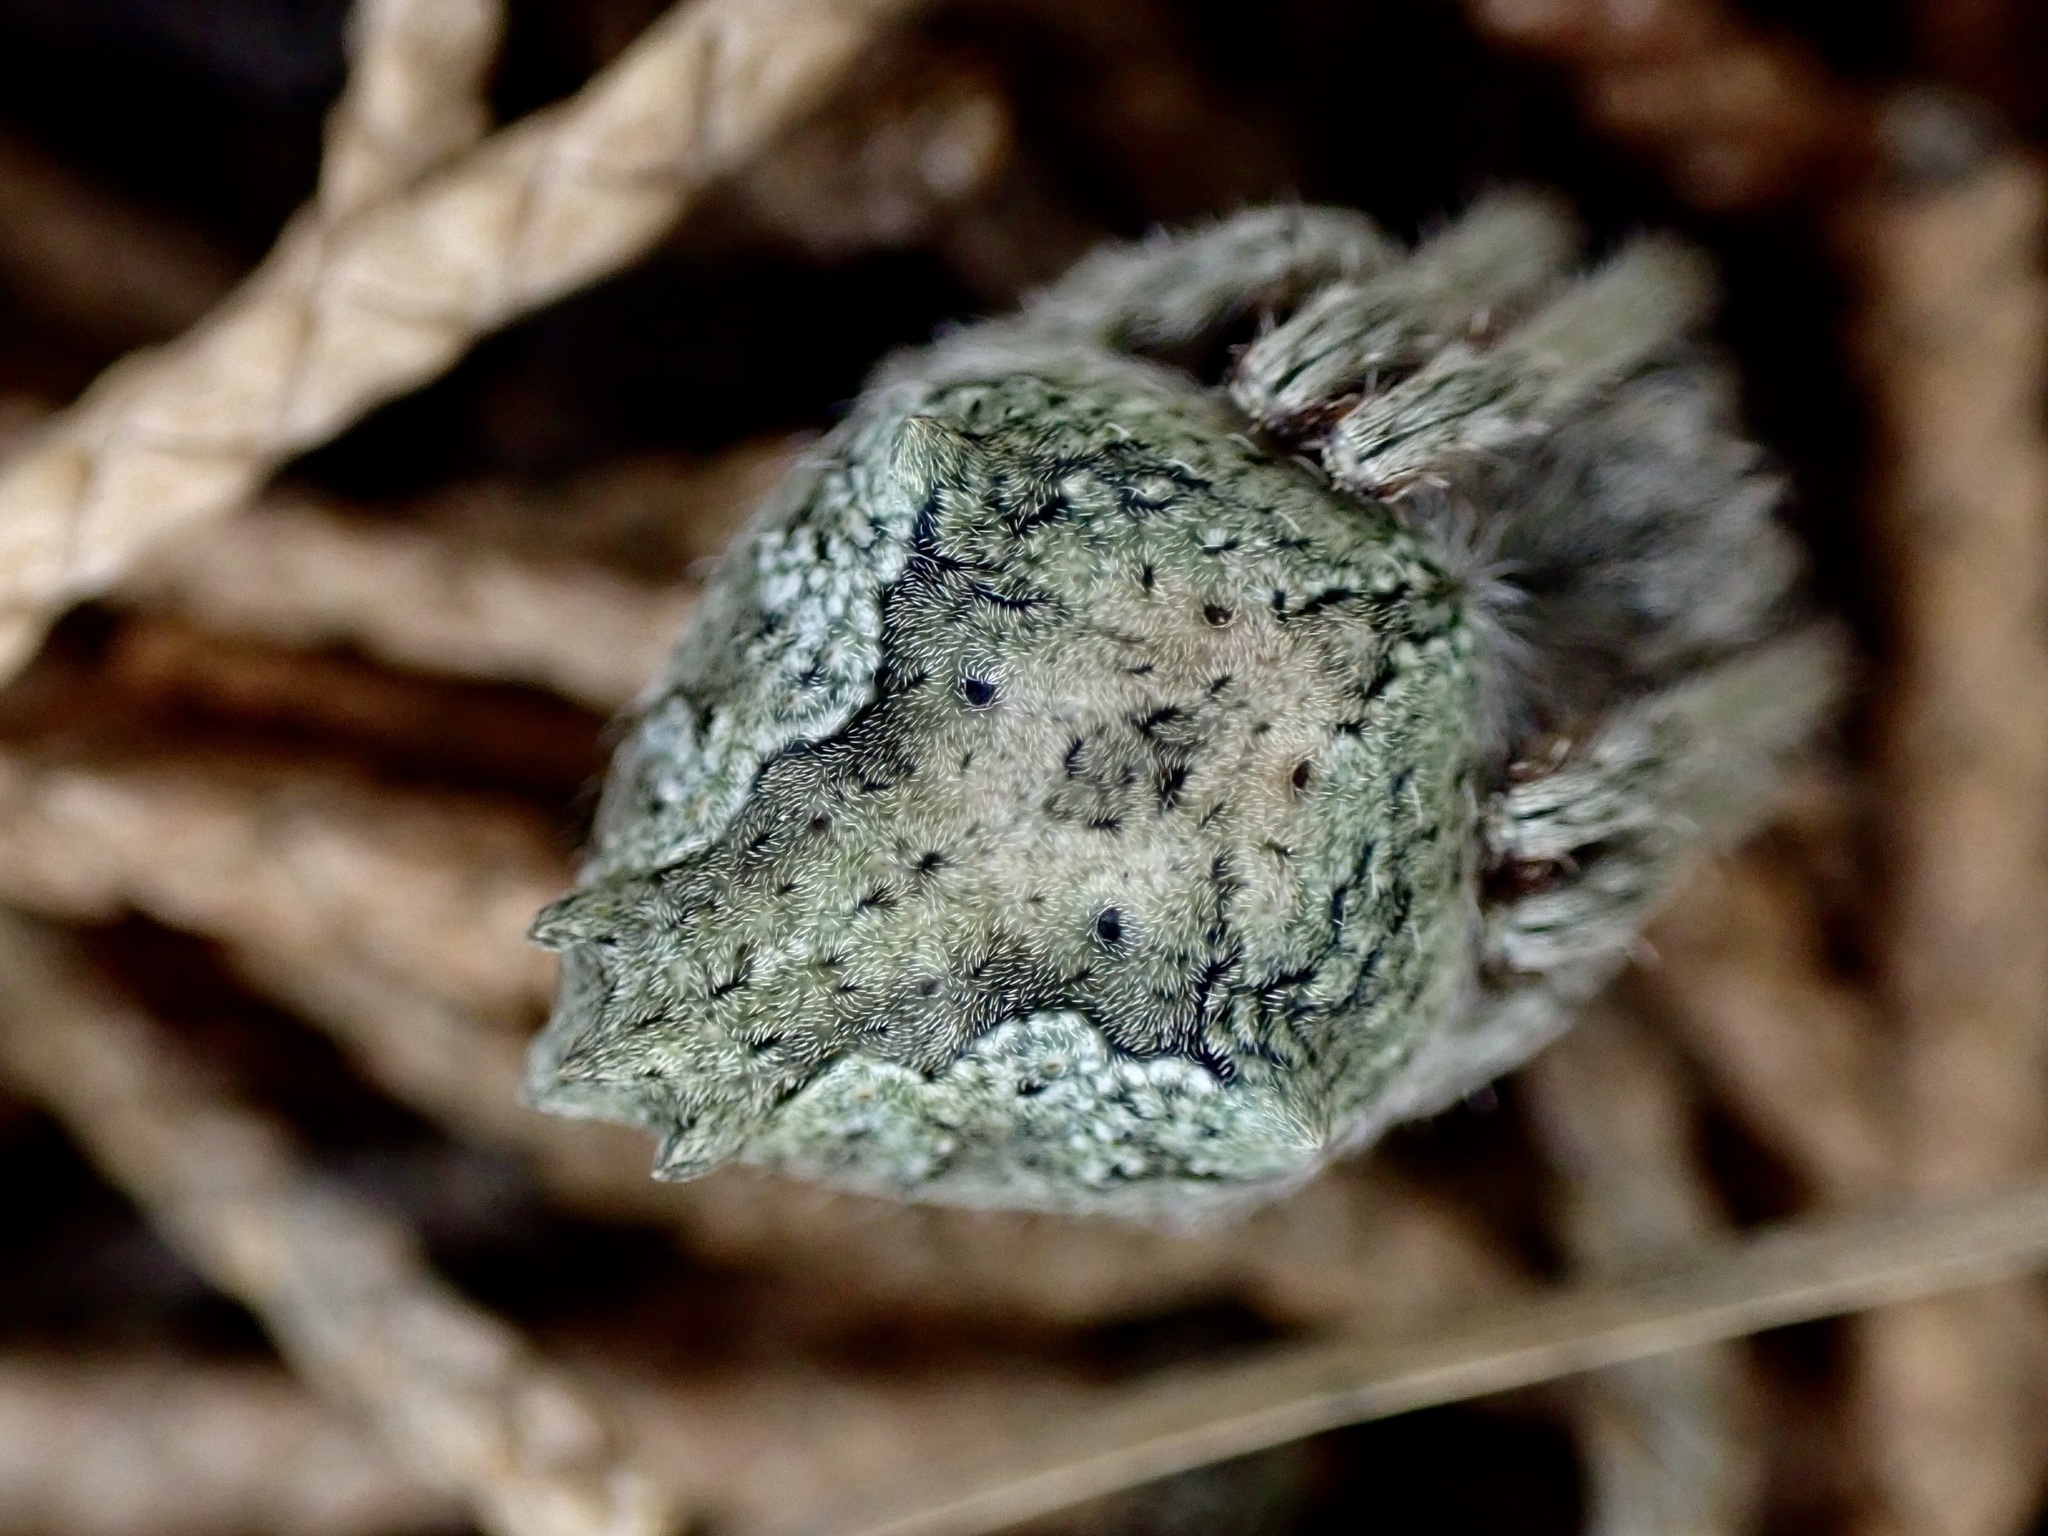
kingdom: Animalia
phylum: Arthropoda
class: Arachnida
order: Araneae
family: Araneidae
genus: Eriophora
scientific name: Eriophora pustulosa
